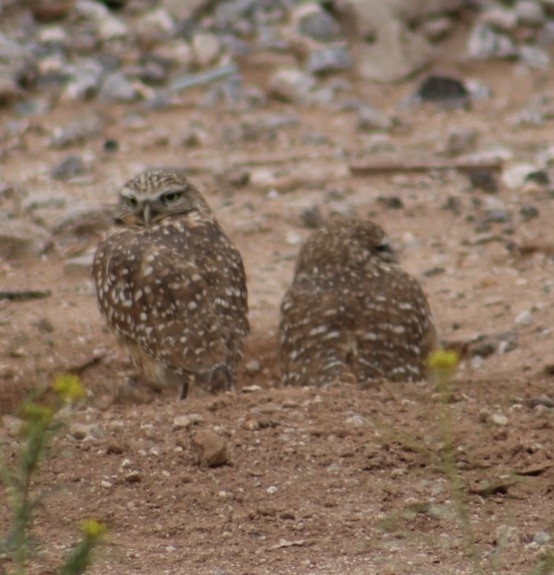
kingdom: Animalia
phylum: Chordata
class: Aves
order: Strigiformes
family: Strigidae
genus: Athene
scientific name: Athene cunicularia
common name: Burrowing owl
